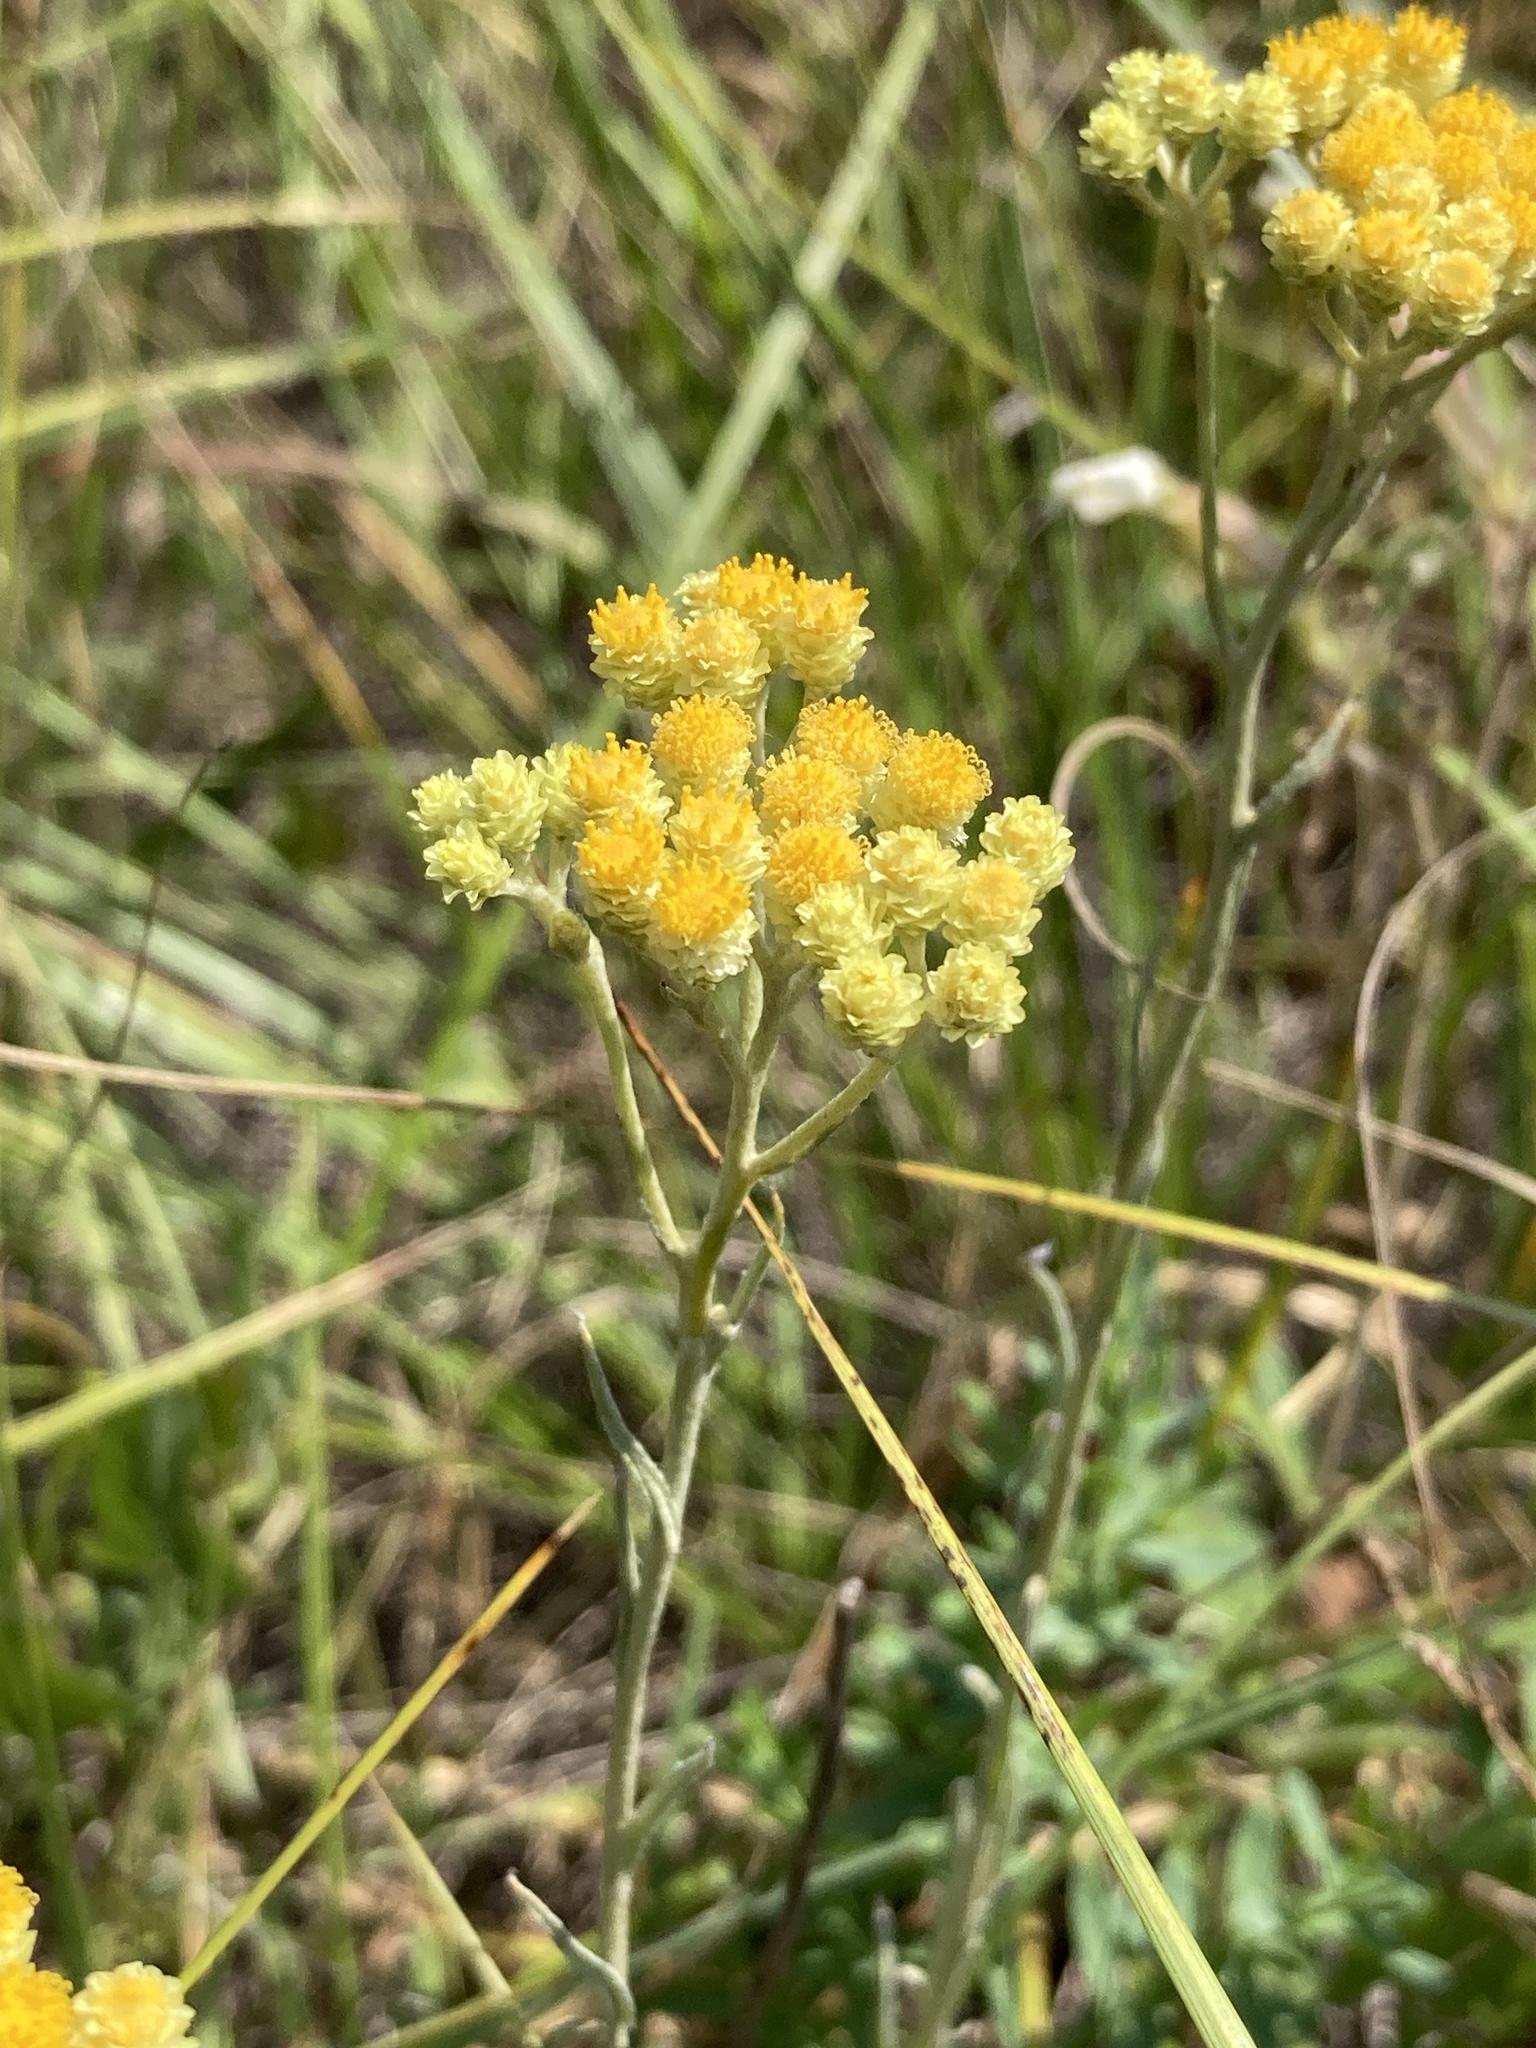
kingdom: Plantae
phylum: Tracheophyta
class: Magnoliopsida
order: Asterales
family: Asteraceae
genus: Helichrysum
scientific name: Helichrysum arenarium
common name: Strawflower
